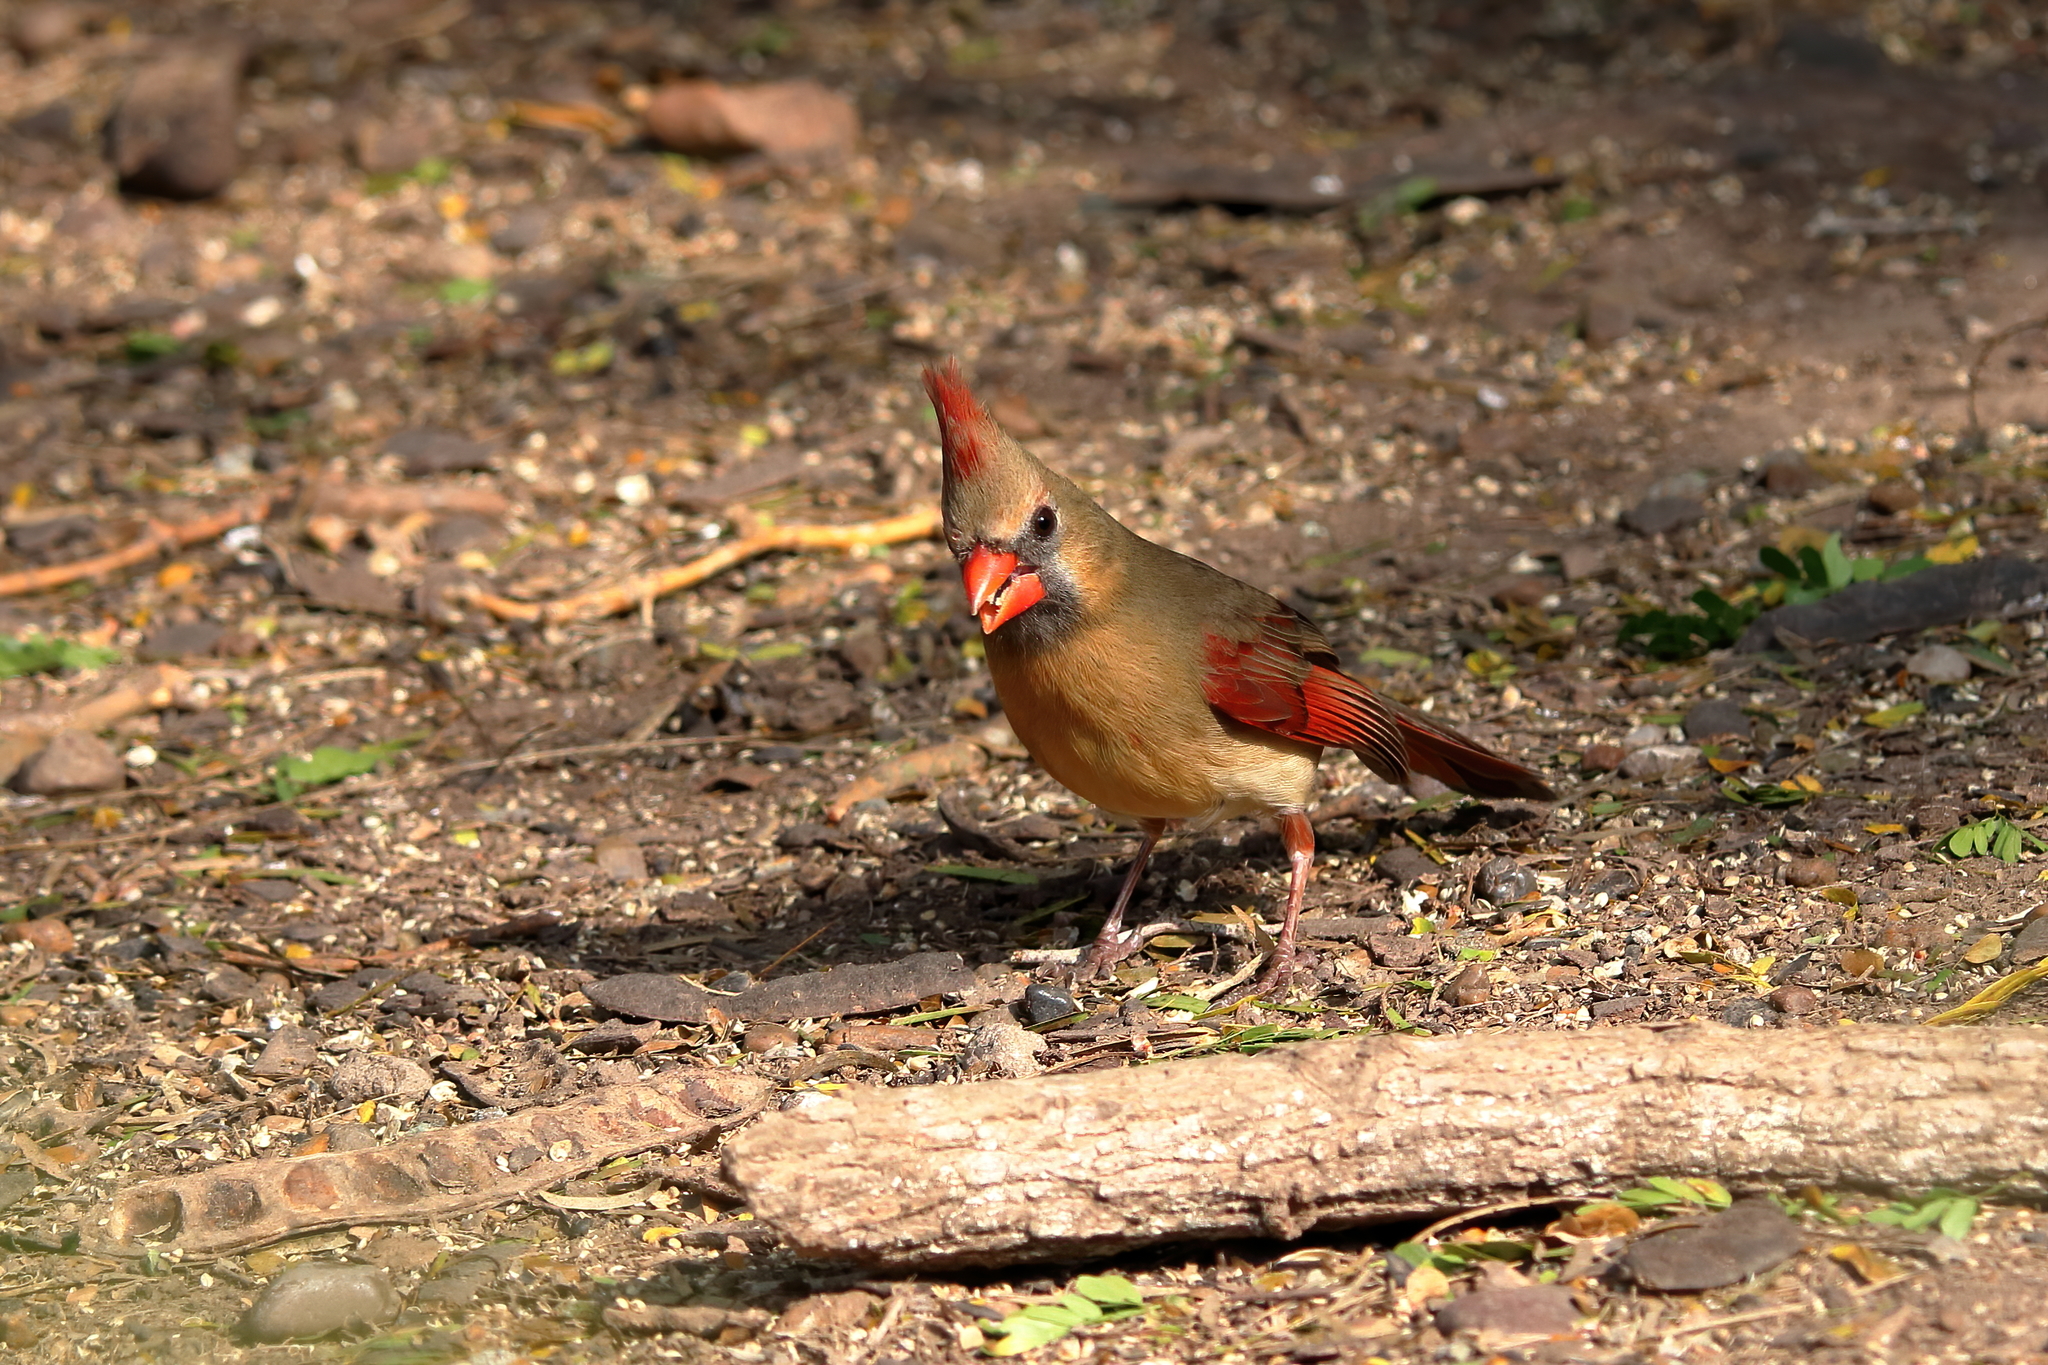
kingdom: Animalia
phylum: Chordata
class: Aves
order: Passeriformes
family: Cardinalidae
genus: Cardinalis
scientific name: Cardinalis cardinalis
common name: Northern cardinal
